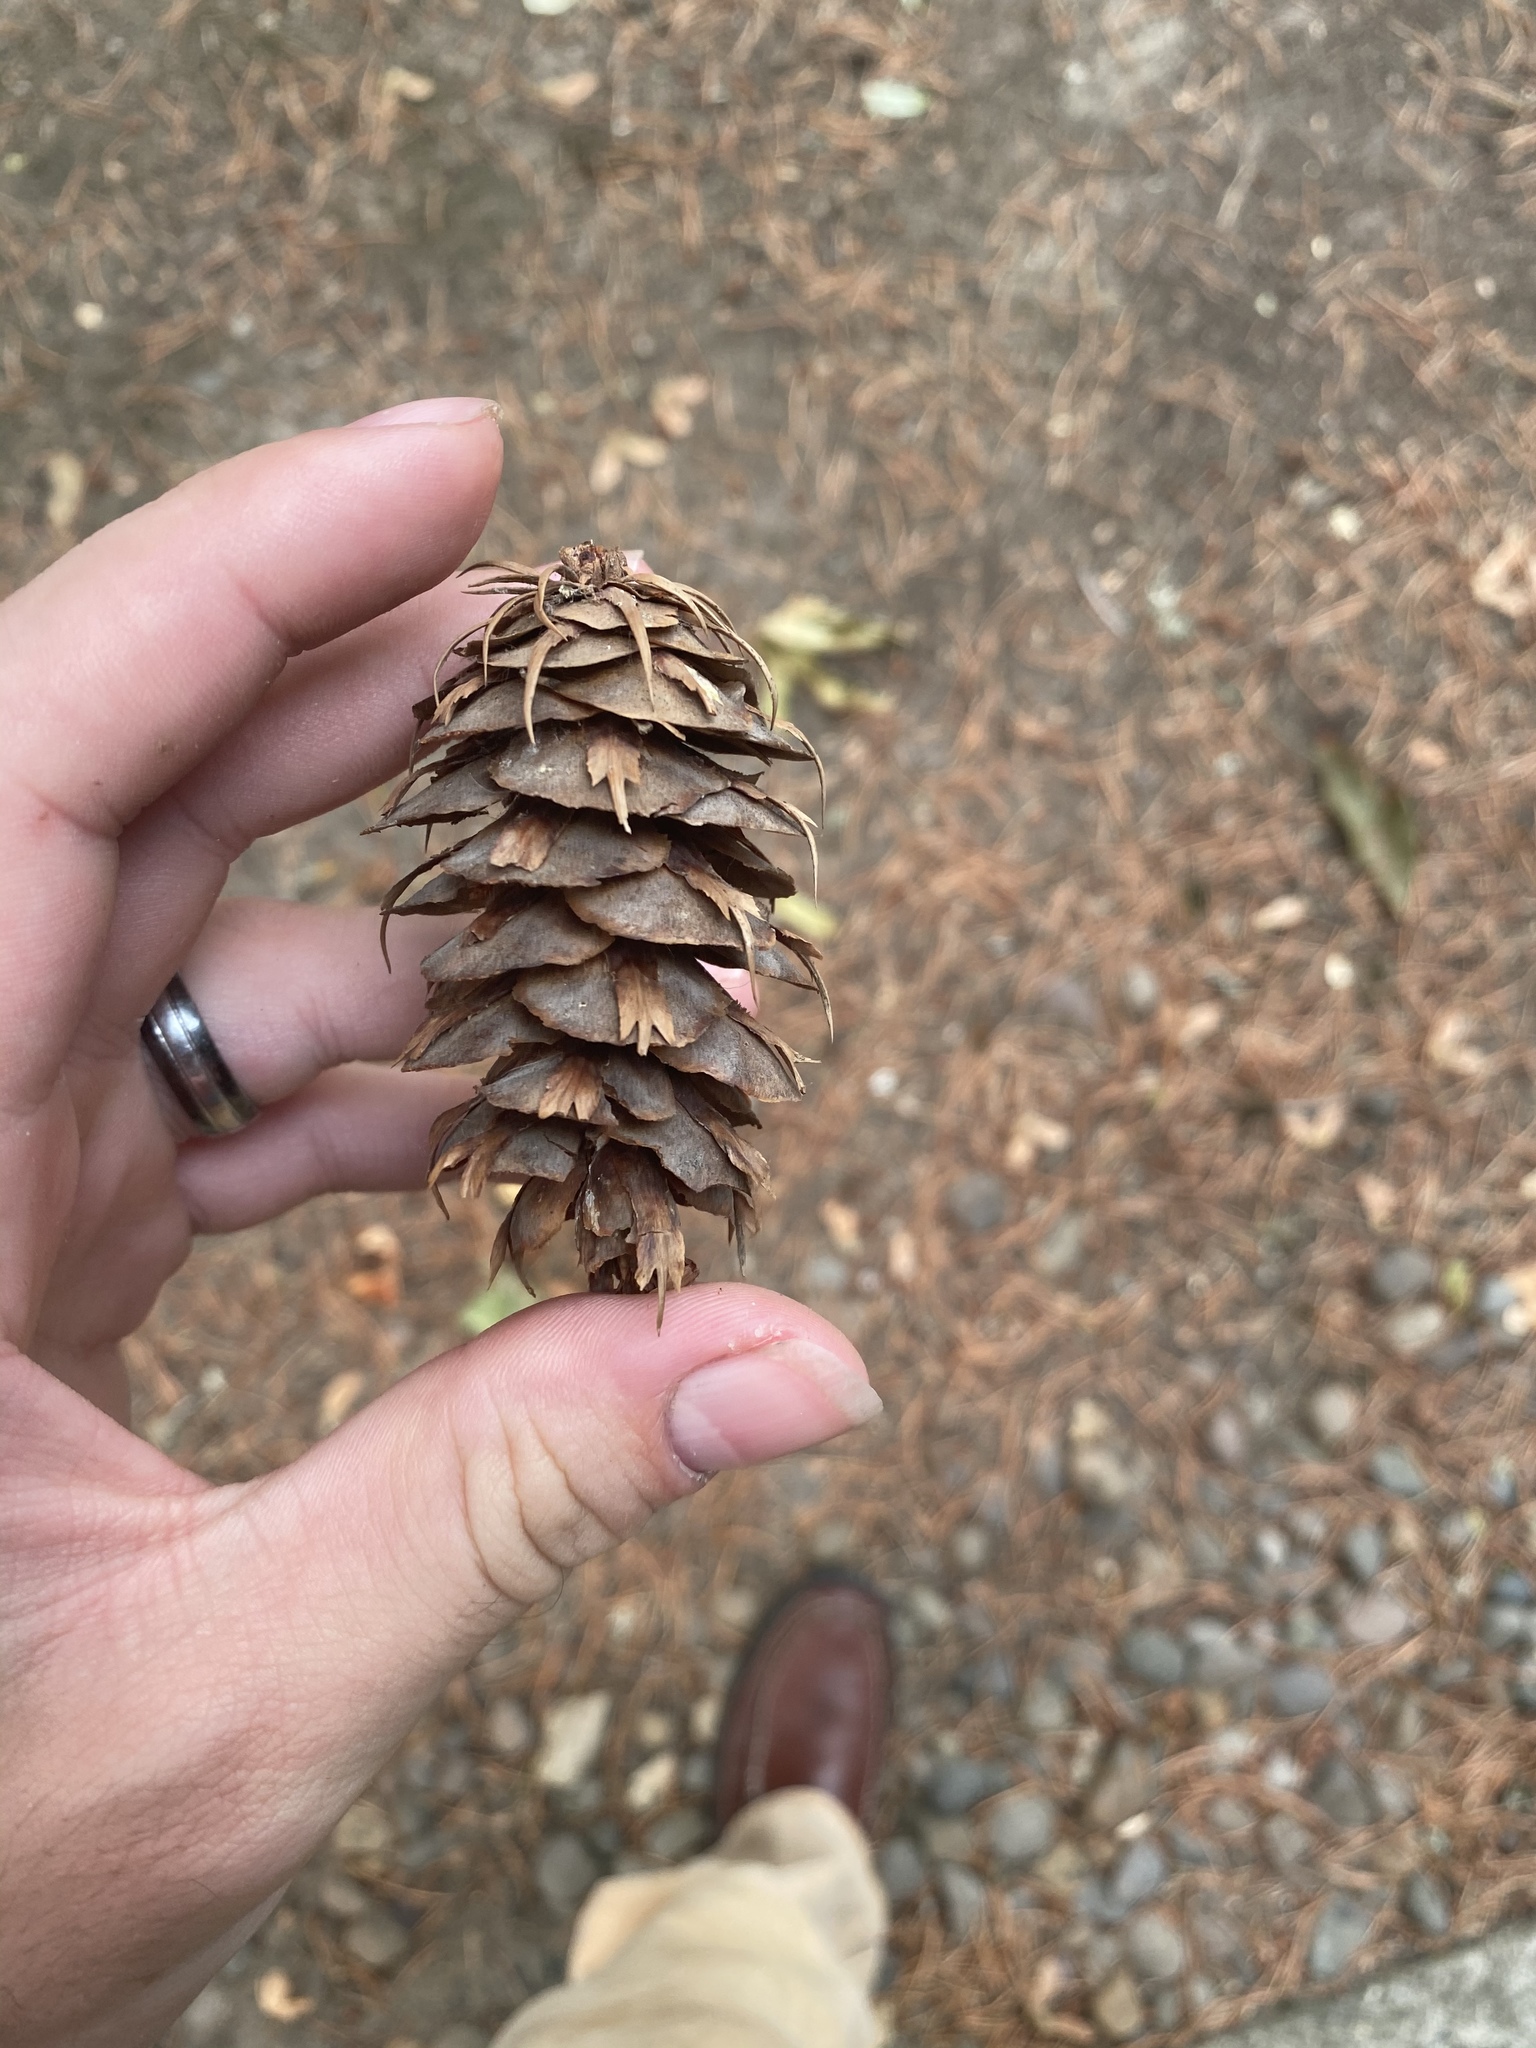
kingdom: Plantae
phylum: Tracheophyta
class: Pinopsida
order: Pinales
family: Pinaceae
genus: Pseudotsuga
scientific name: Pseudotsuga menziesii
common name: Douglas fir
